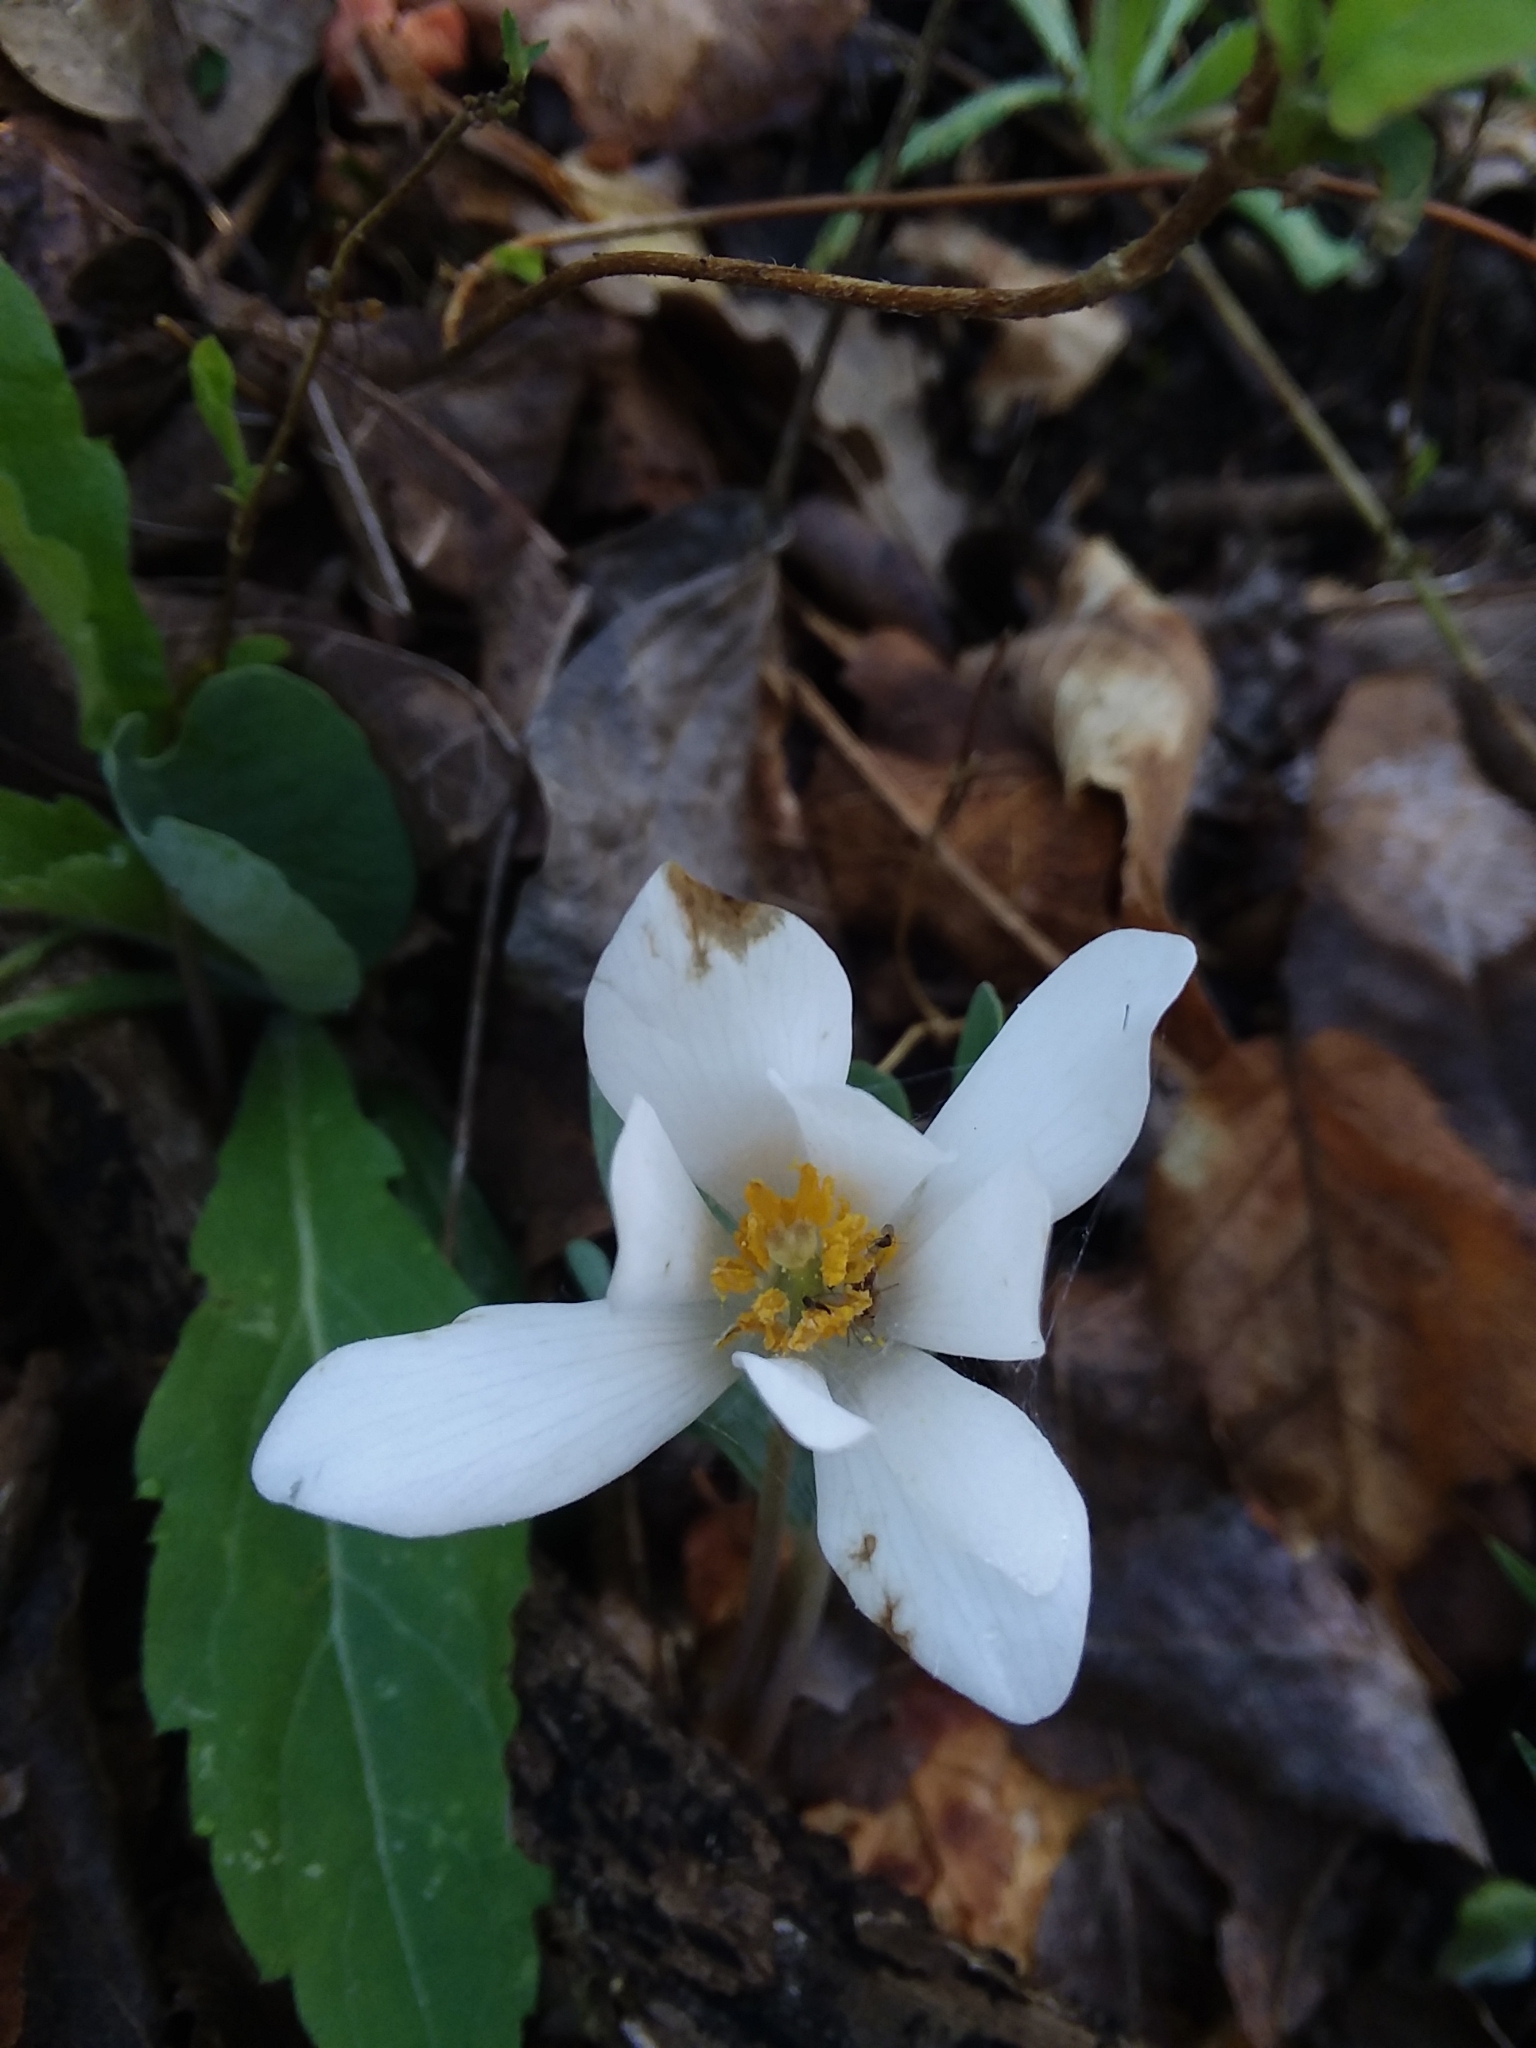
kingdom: Plantae
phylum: Tracheophyta
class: Magnoliopsida
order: Ranunculales
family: Papaveraceae
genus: Sanguinaria
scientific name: Sanguinaria canadensis
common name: Bloodroot
